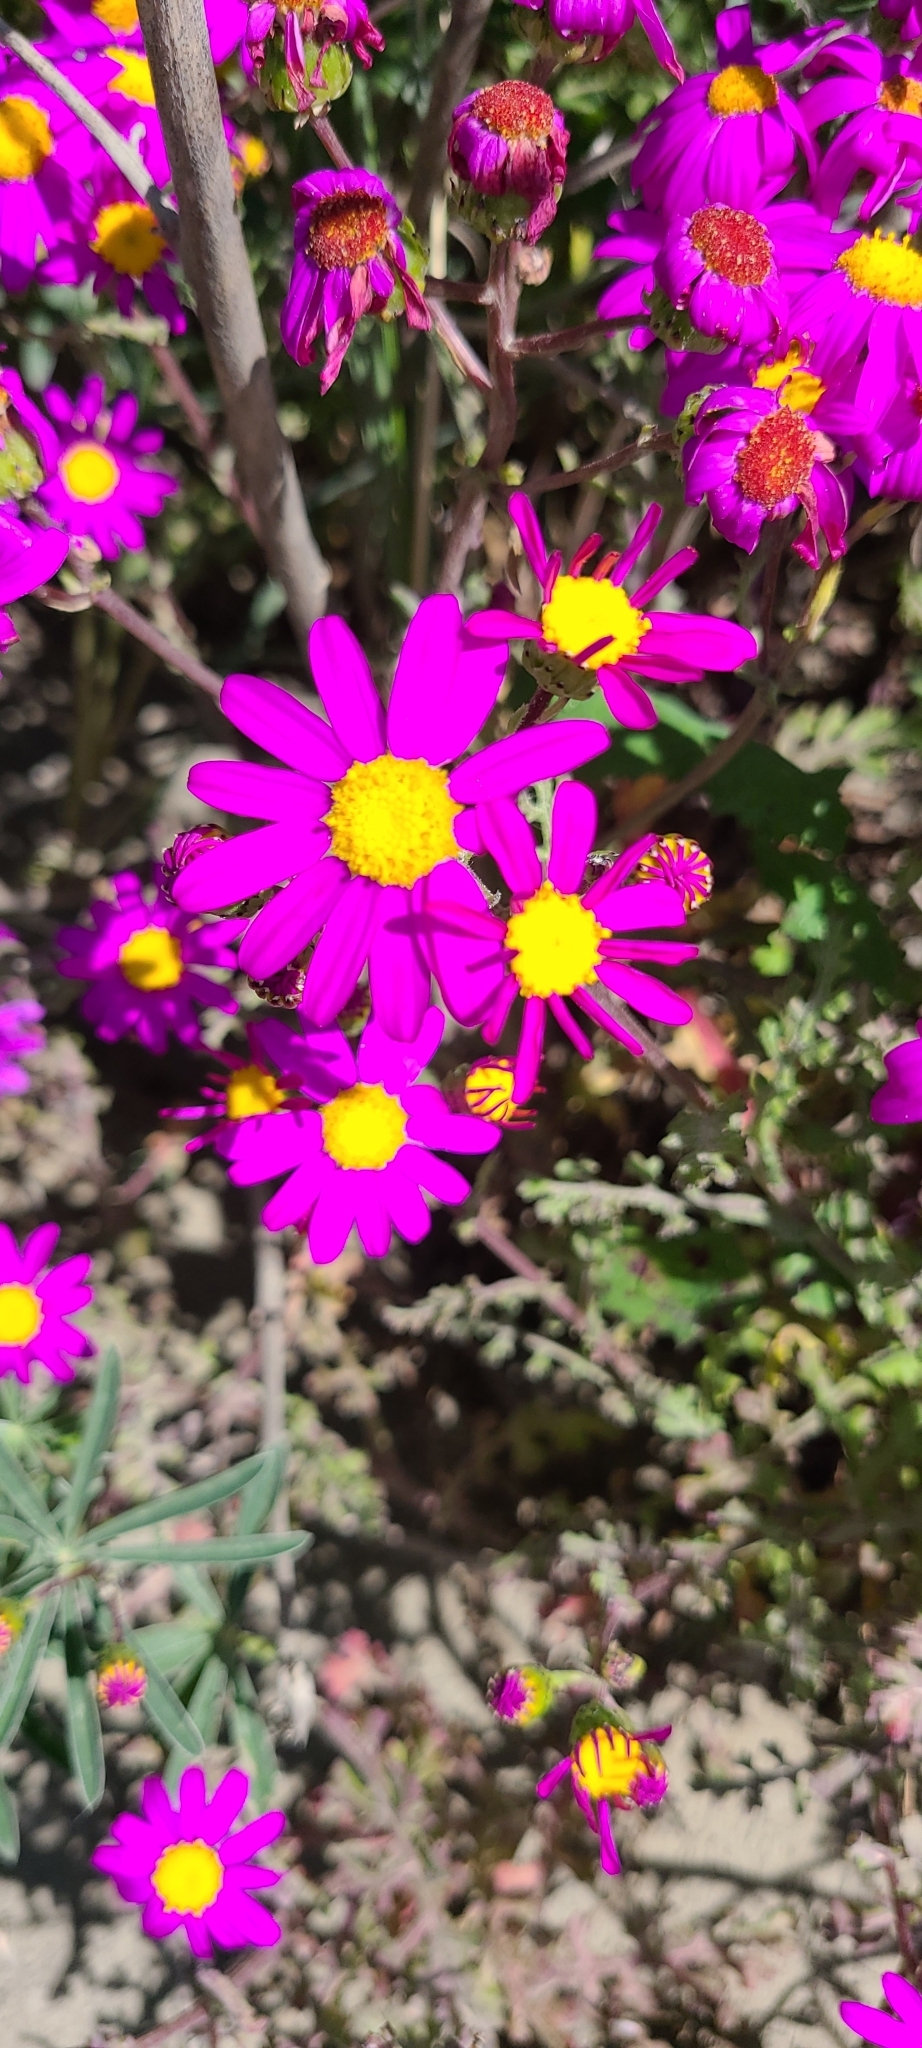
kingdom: Plantae
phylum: Tracheophyta
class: Magnoliopsida
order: Asterales
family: Asteraceae
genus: Senecio
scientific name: Senecio elegans
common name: Purple groundsel
